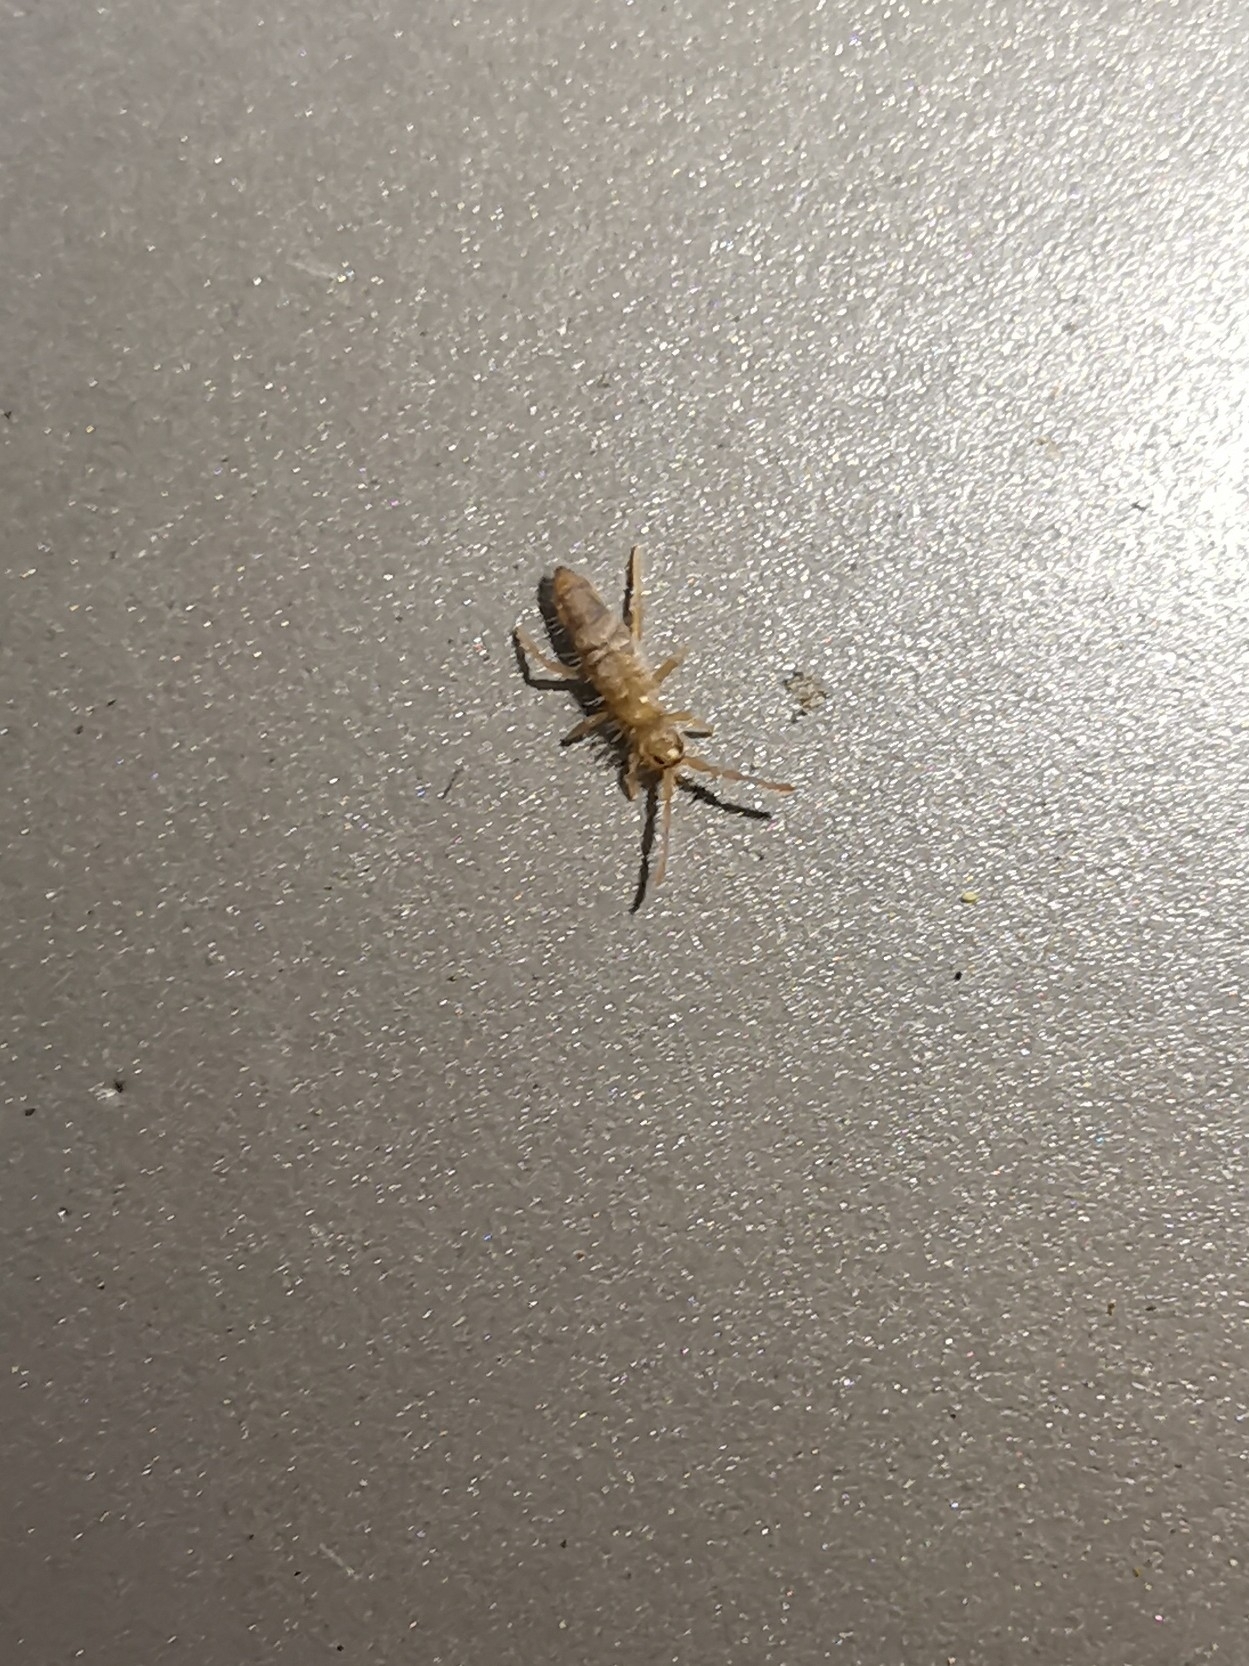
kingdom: Animalia
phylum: Arthropoda
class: Collembola
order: Entomobryomorpha
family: Entomobryidae
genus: Entomobrya
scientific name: Entomobrya nivalis
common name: Cosmopolitan springtail
